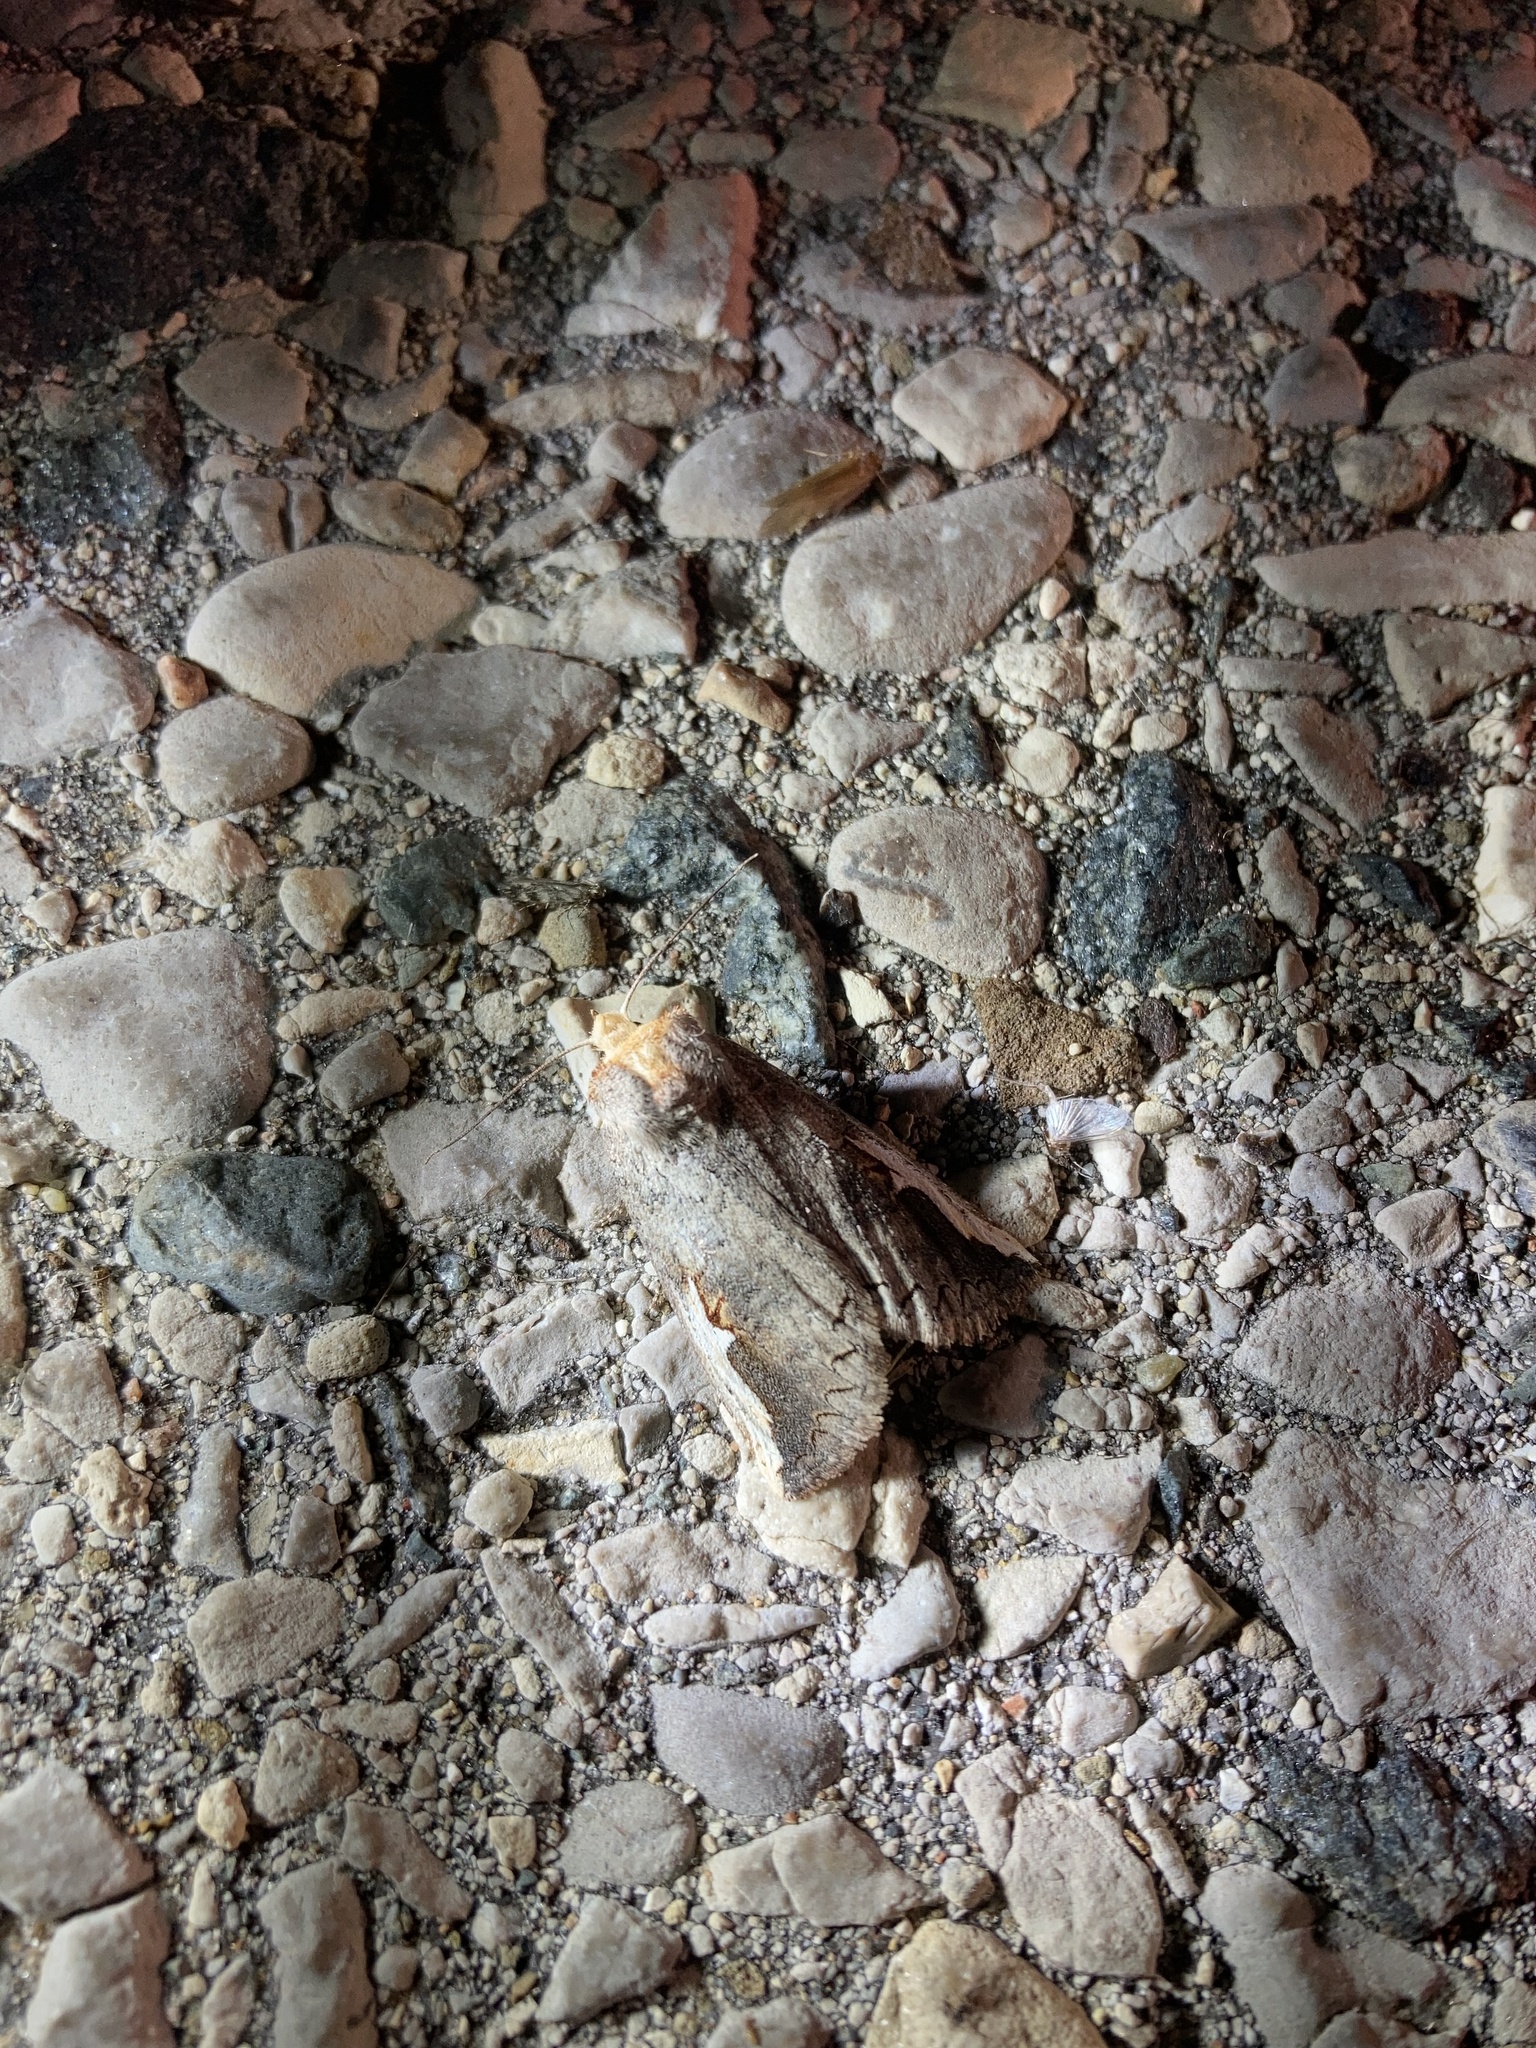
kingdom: Animalia
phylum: Arthropoda
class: Insecta
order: Lepidoptera
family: Notodontidae
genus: Symmerista
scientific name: Symmerista albifrons
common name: White-headed prominent
